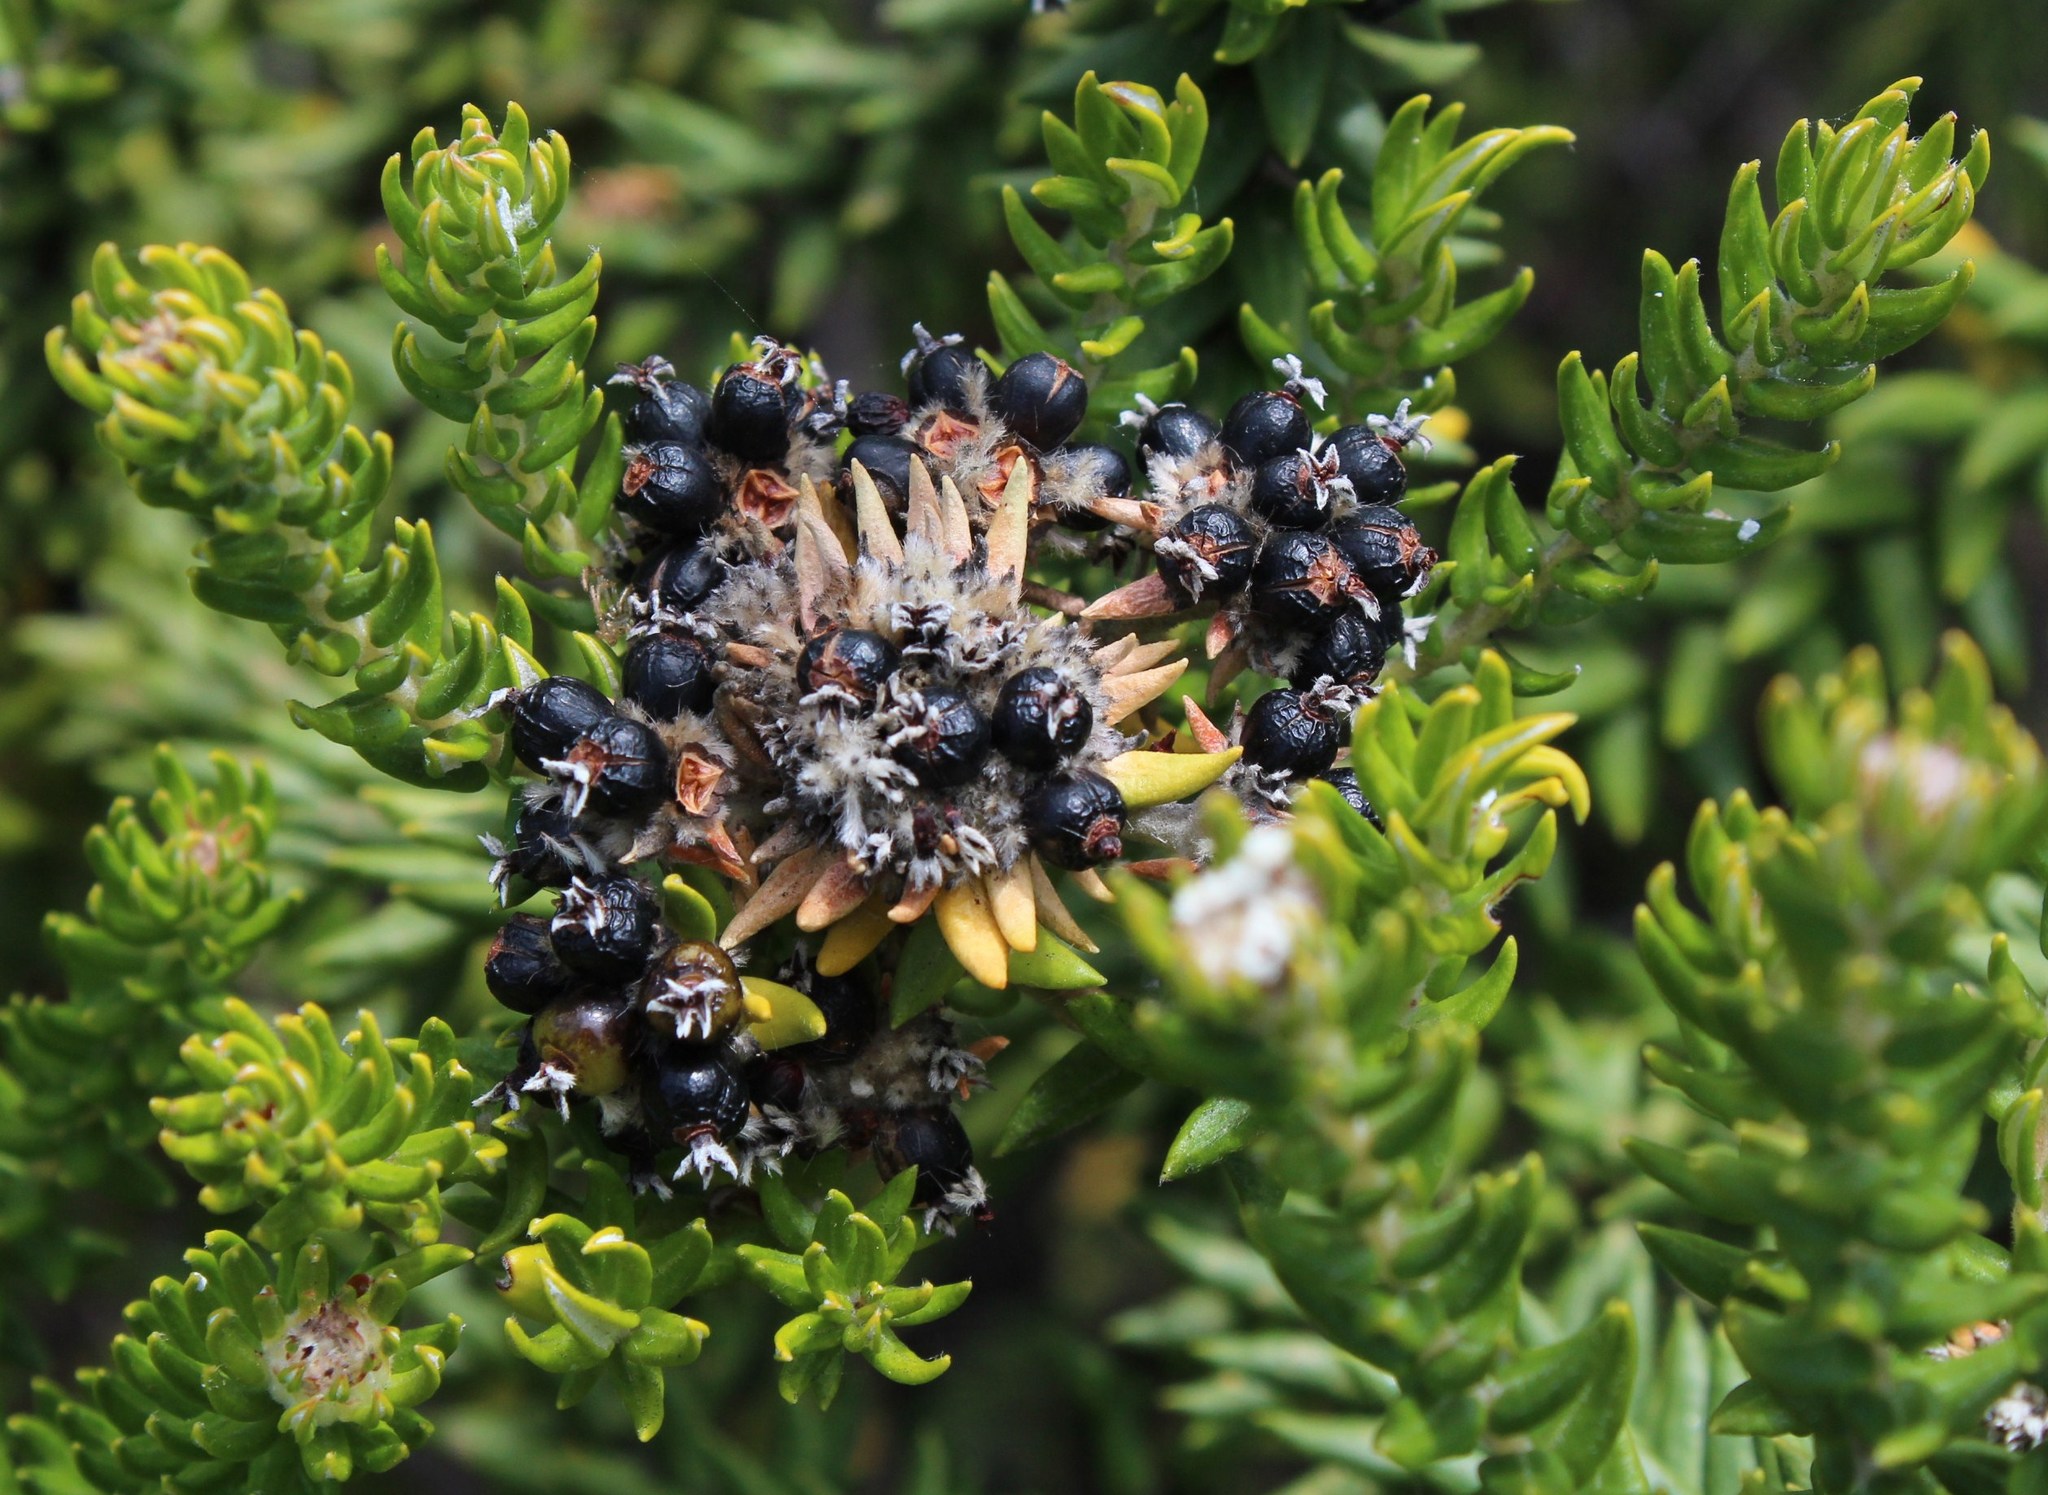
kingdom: Plantae
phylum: Tracheophyta
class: Magnoliopsida
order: Rosales
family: Rhamnaceae
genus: Phylica
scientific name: Phylica axillaris
